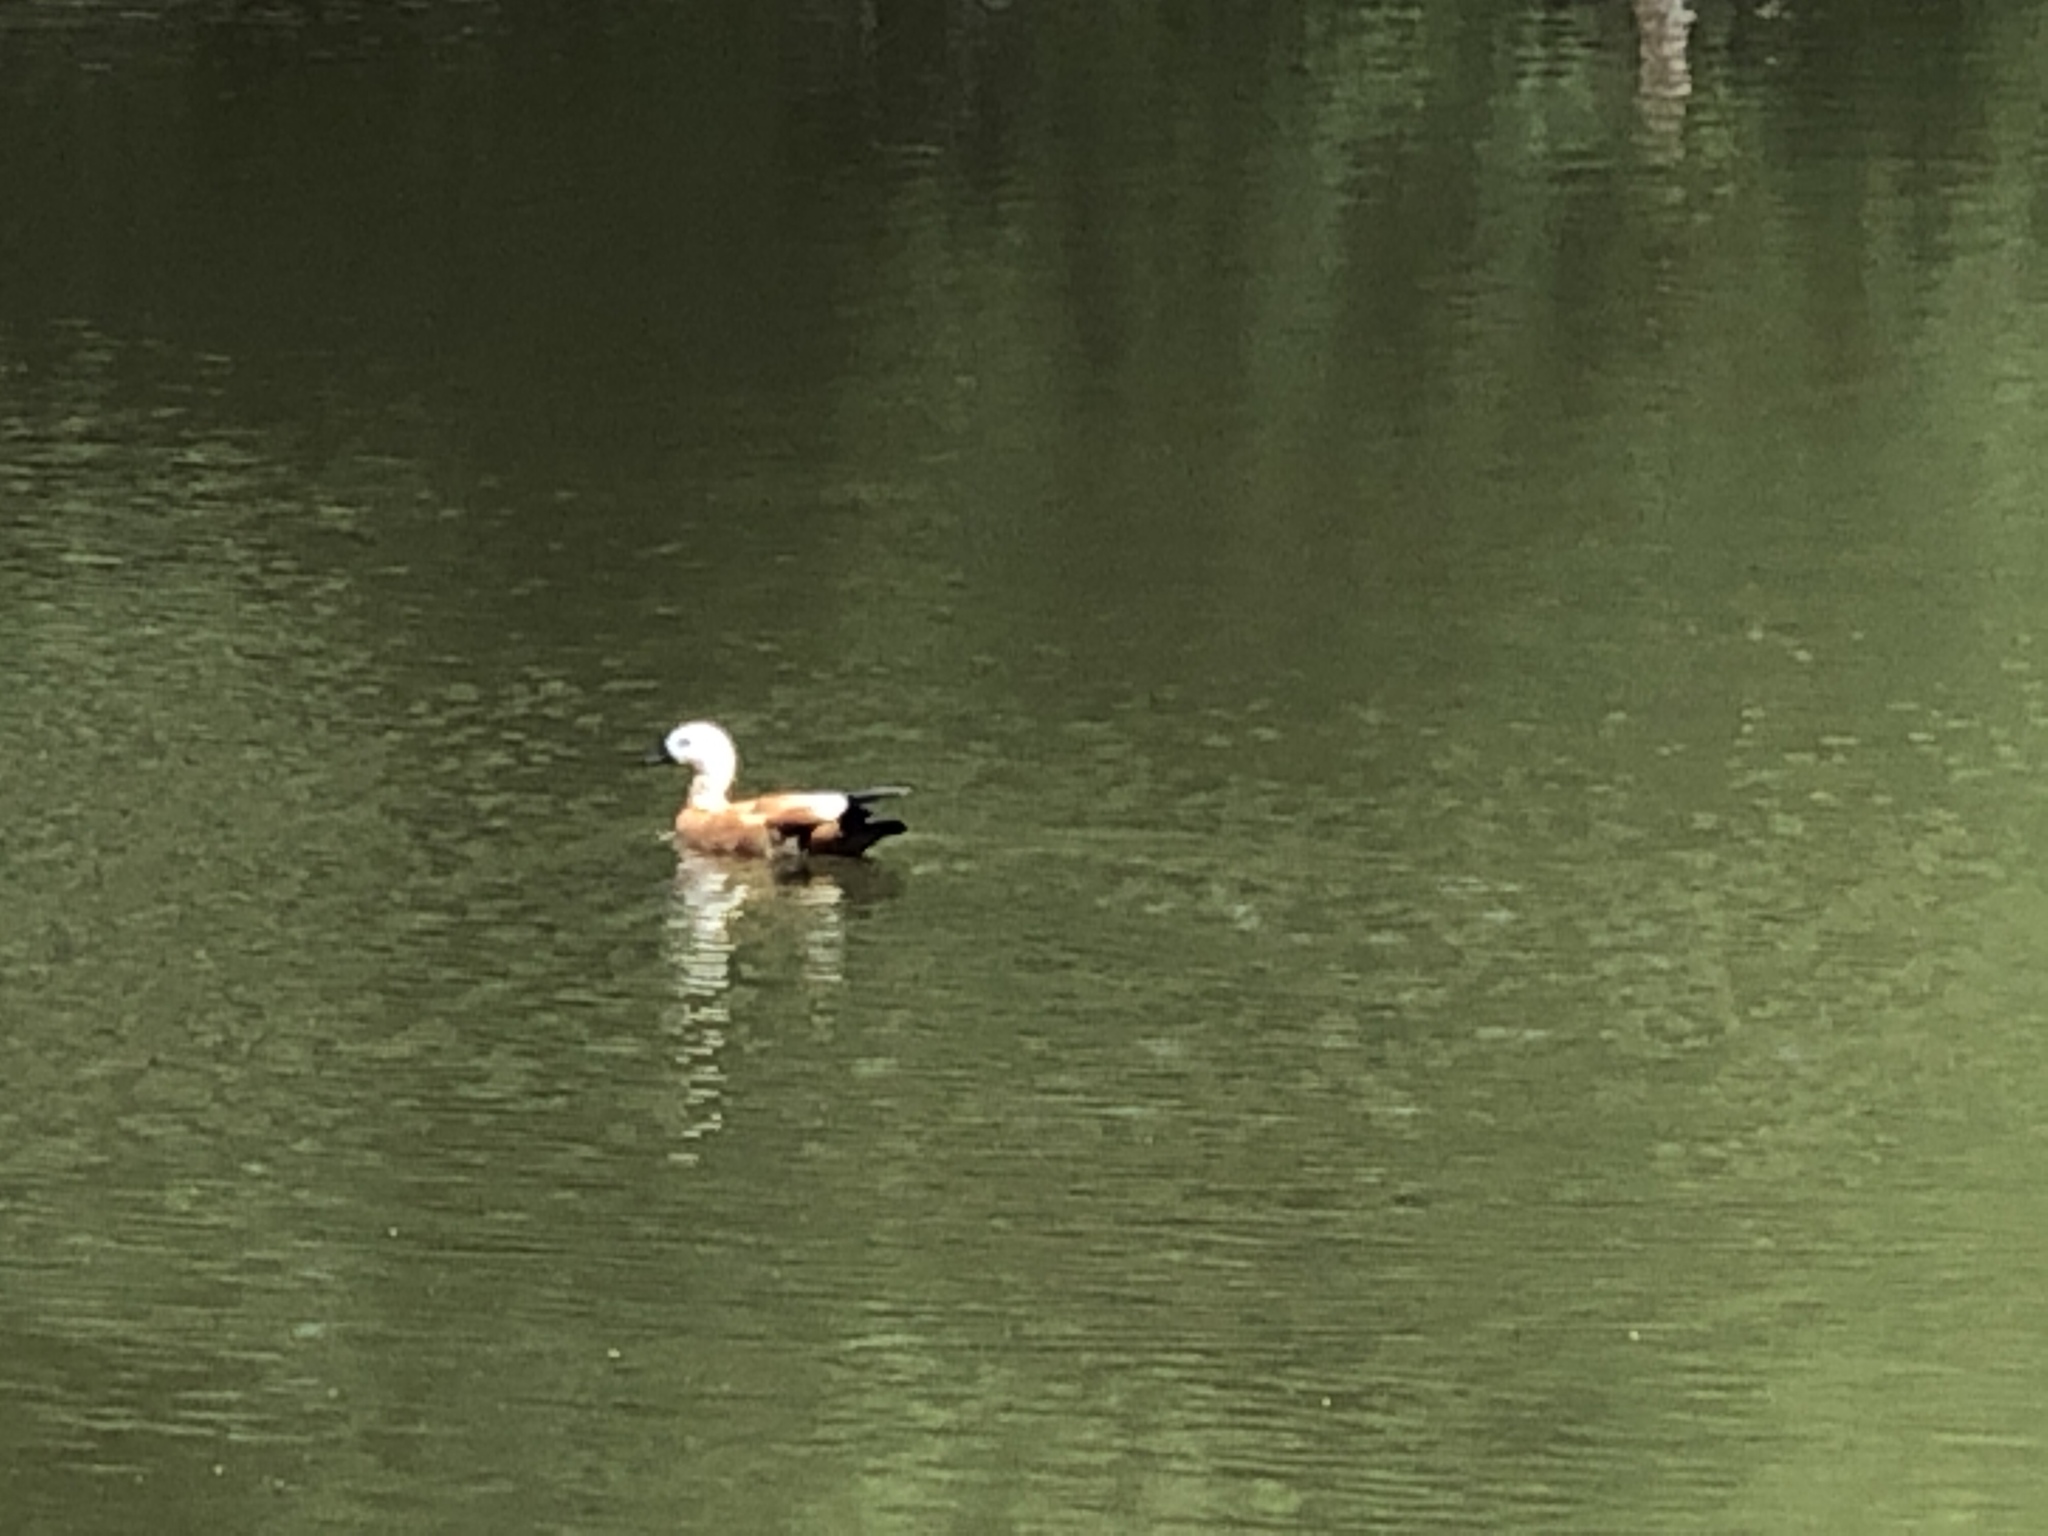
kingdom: Animalia
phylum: Chordata
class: Aves
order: Anseriformes
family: Anatidae
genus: Tadorna
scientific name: Tadorna ferruginea
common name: Ruddy shelduck
